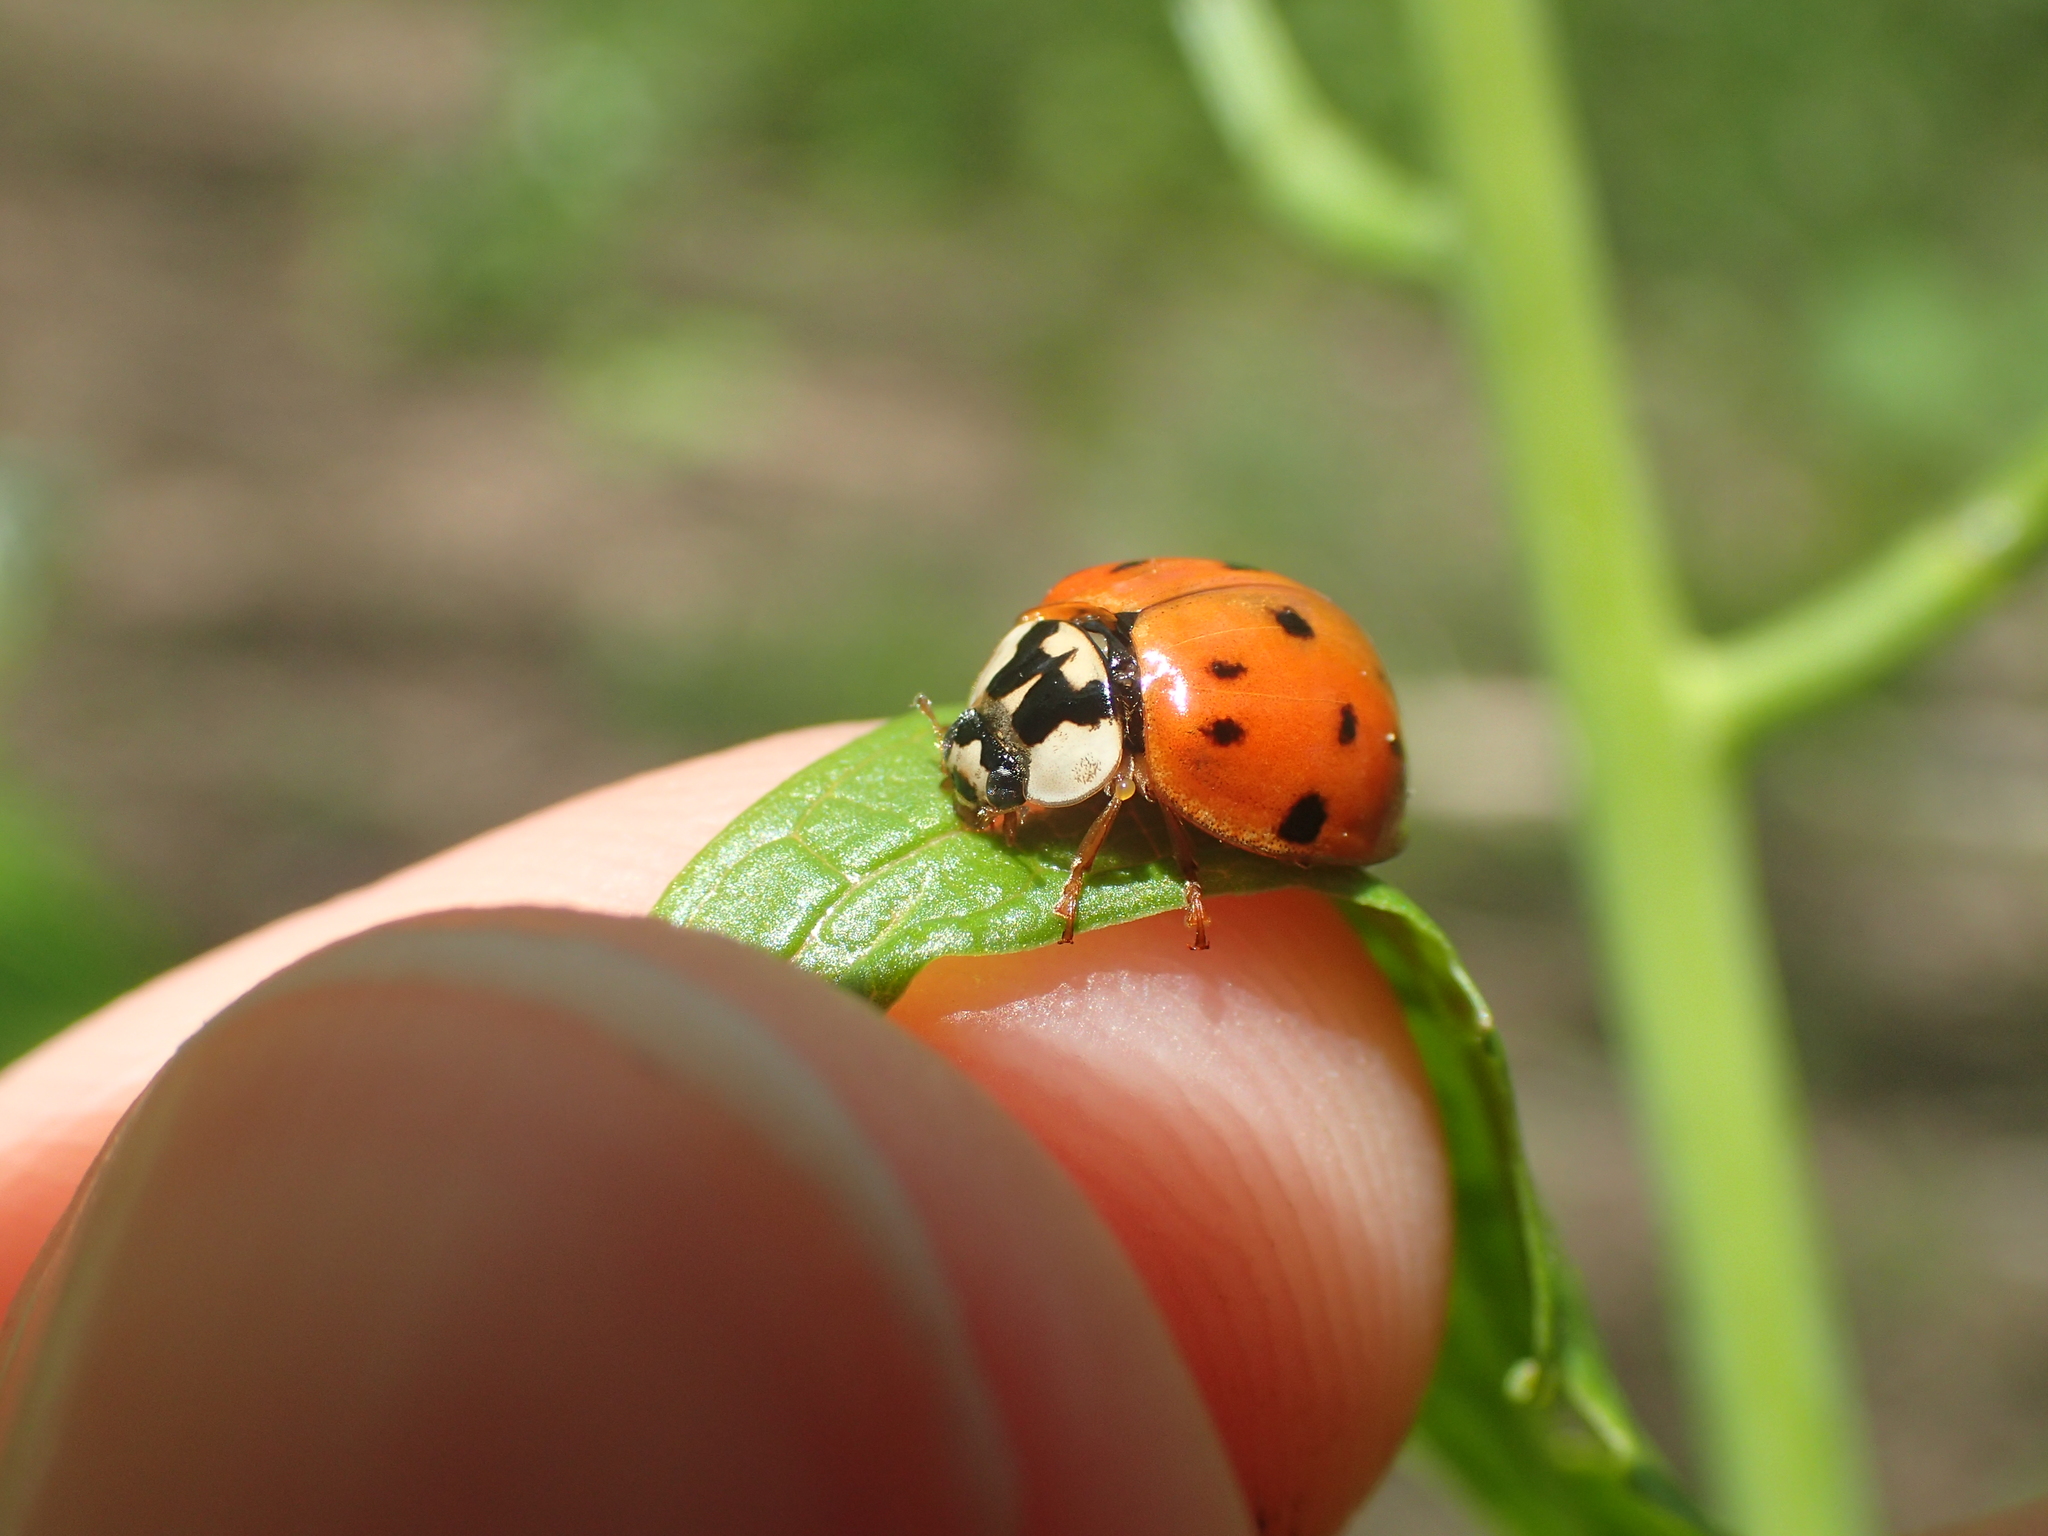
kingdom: Animalia
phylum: Arthropoda
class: Insecta
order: Coleoptera
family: Coccinellidae
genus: Harmonia
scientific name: Harmonia axyridis
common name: Harlequin ladybird
